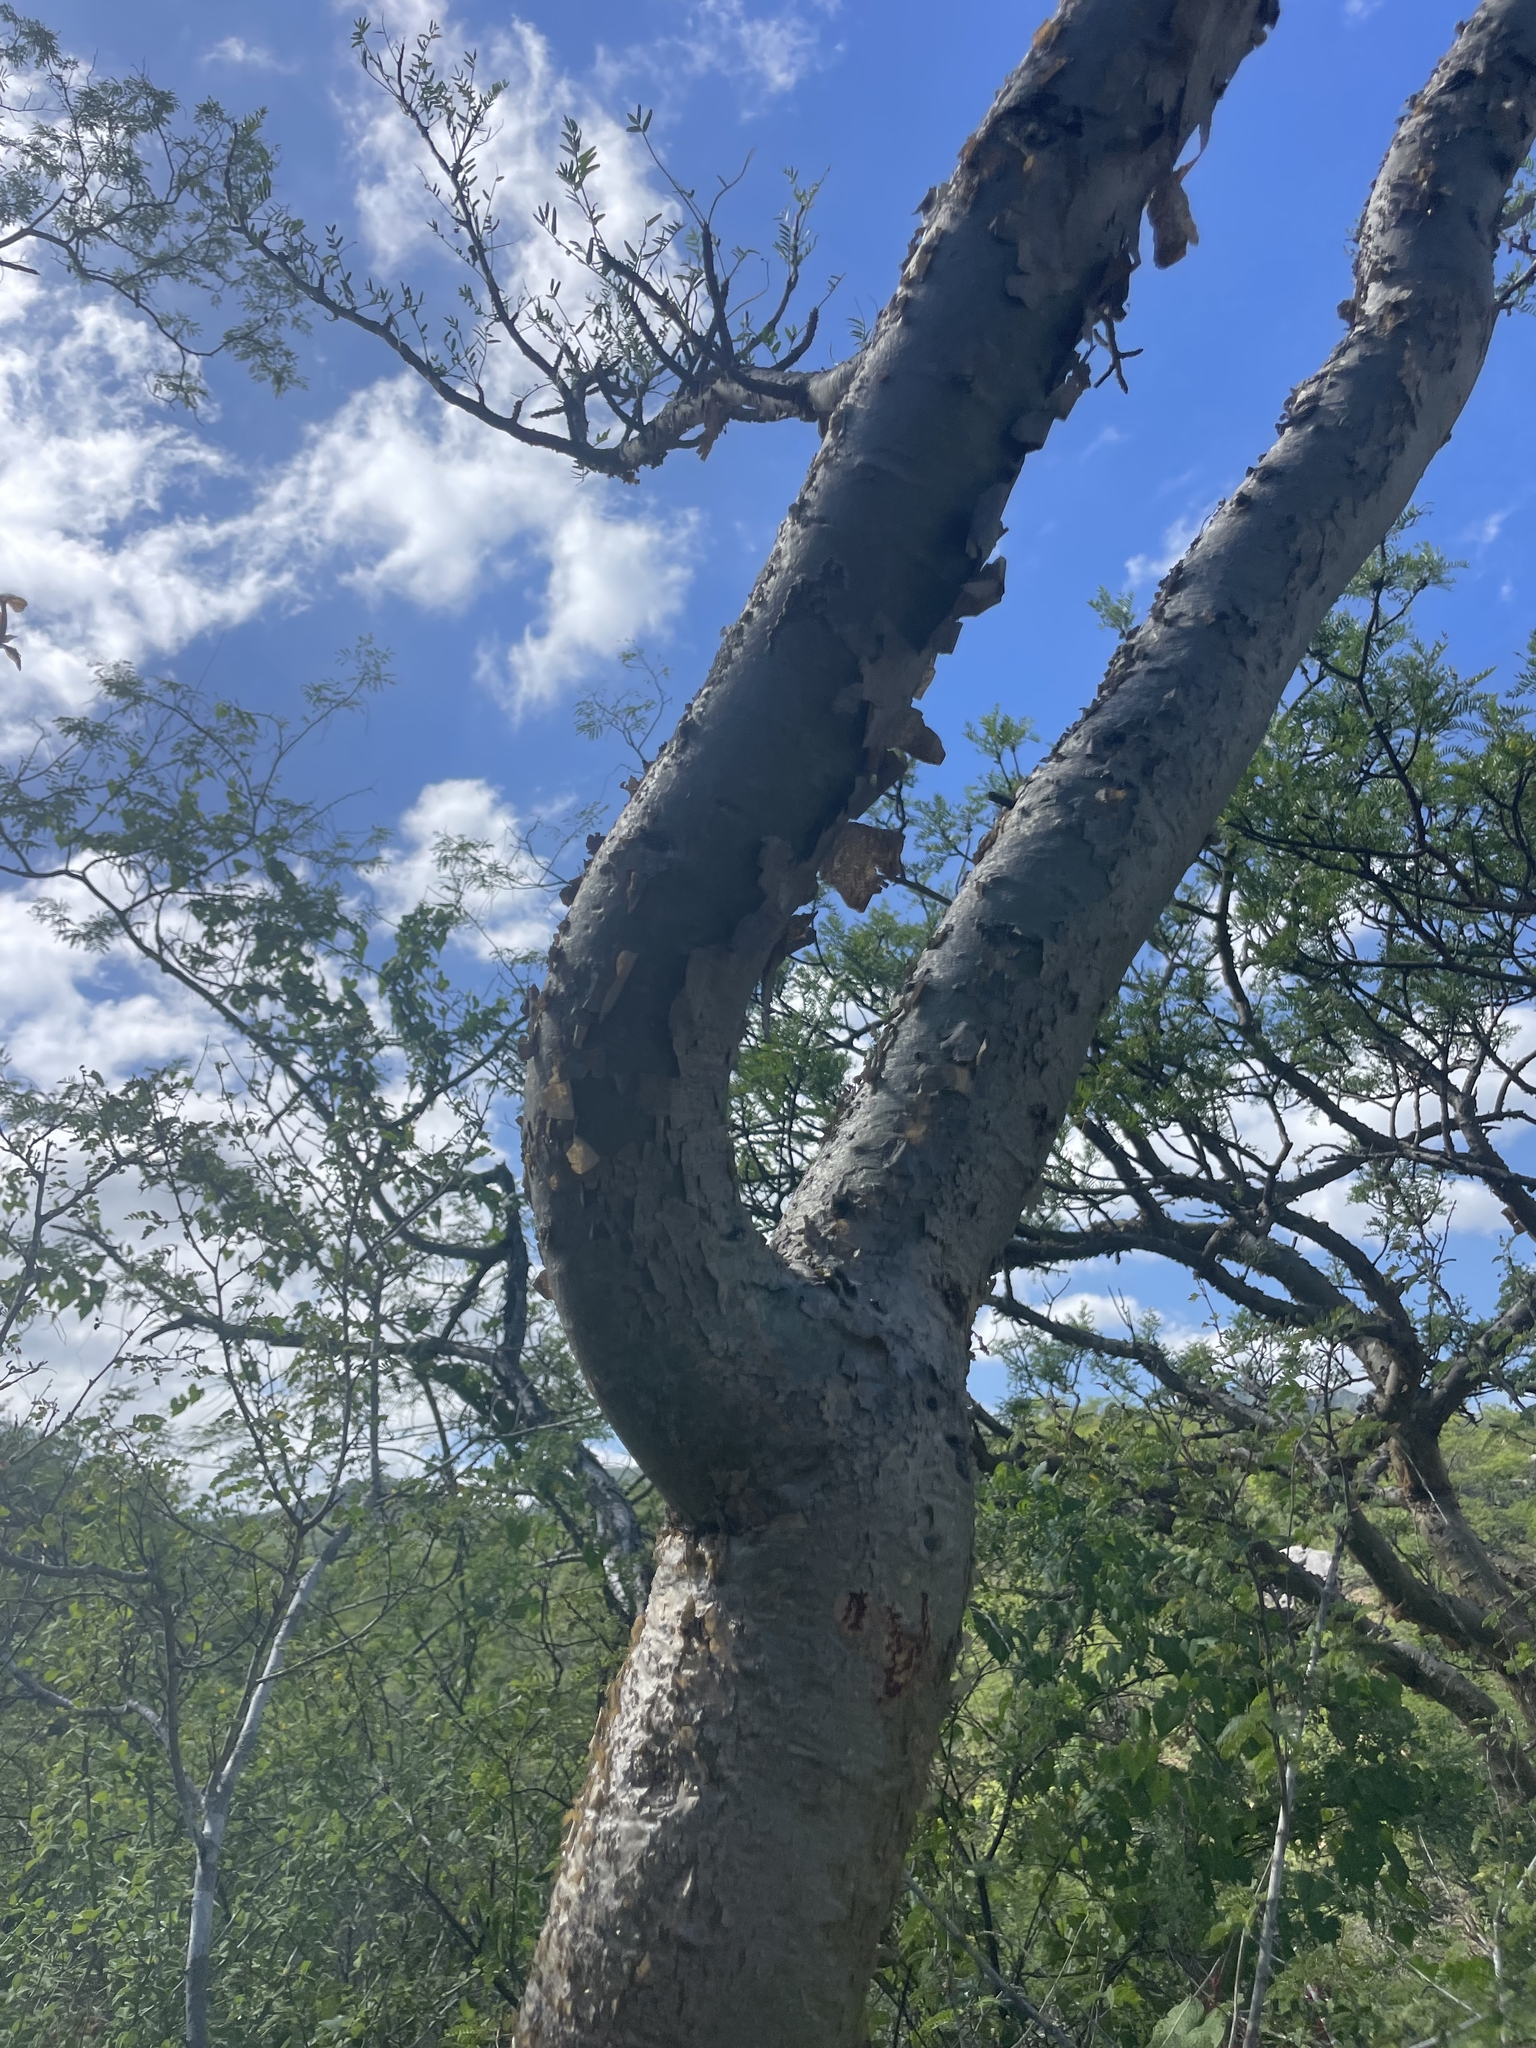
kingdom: Plantae
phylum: Tracheophyta
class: Magnoliopsida
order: Sapindales
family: Burseraceae
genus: Bursera
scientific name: Bursera microphylla
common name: Elephant tree
